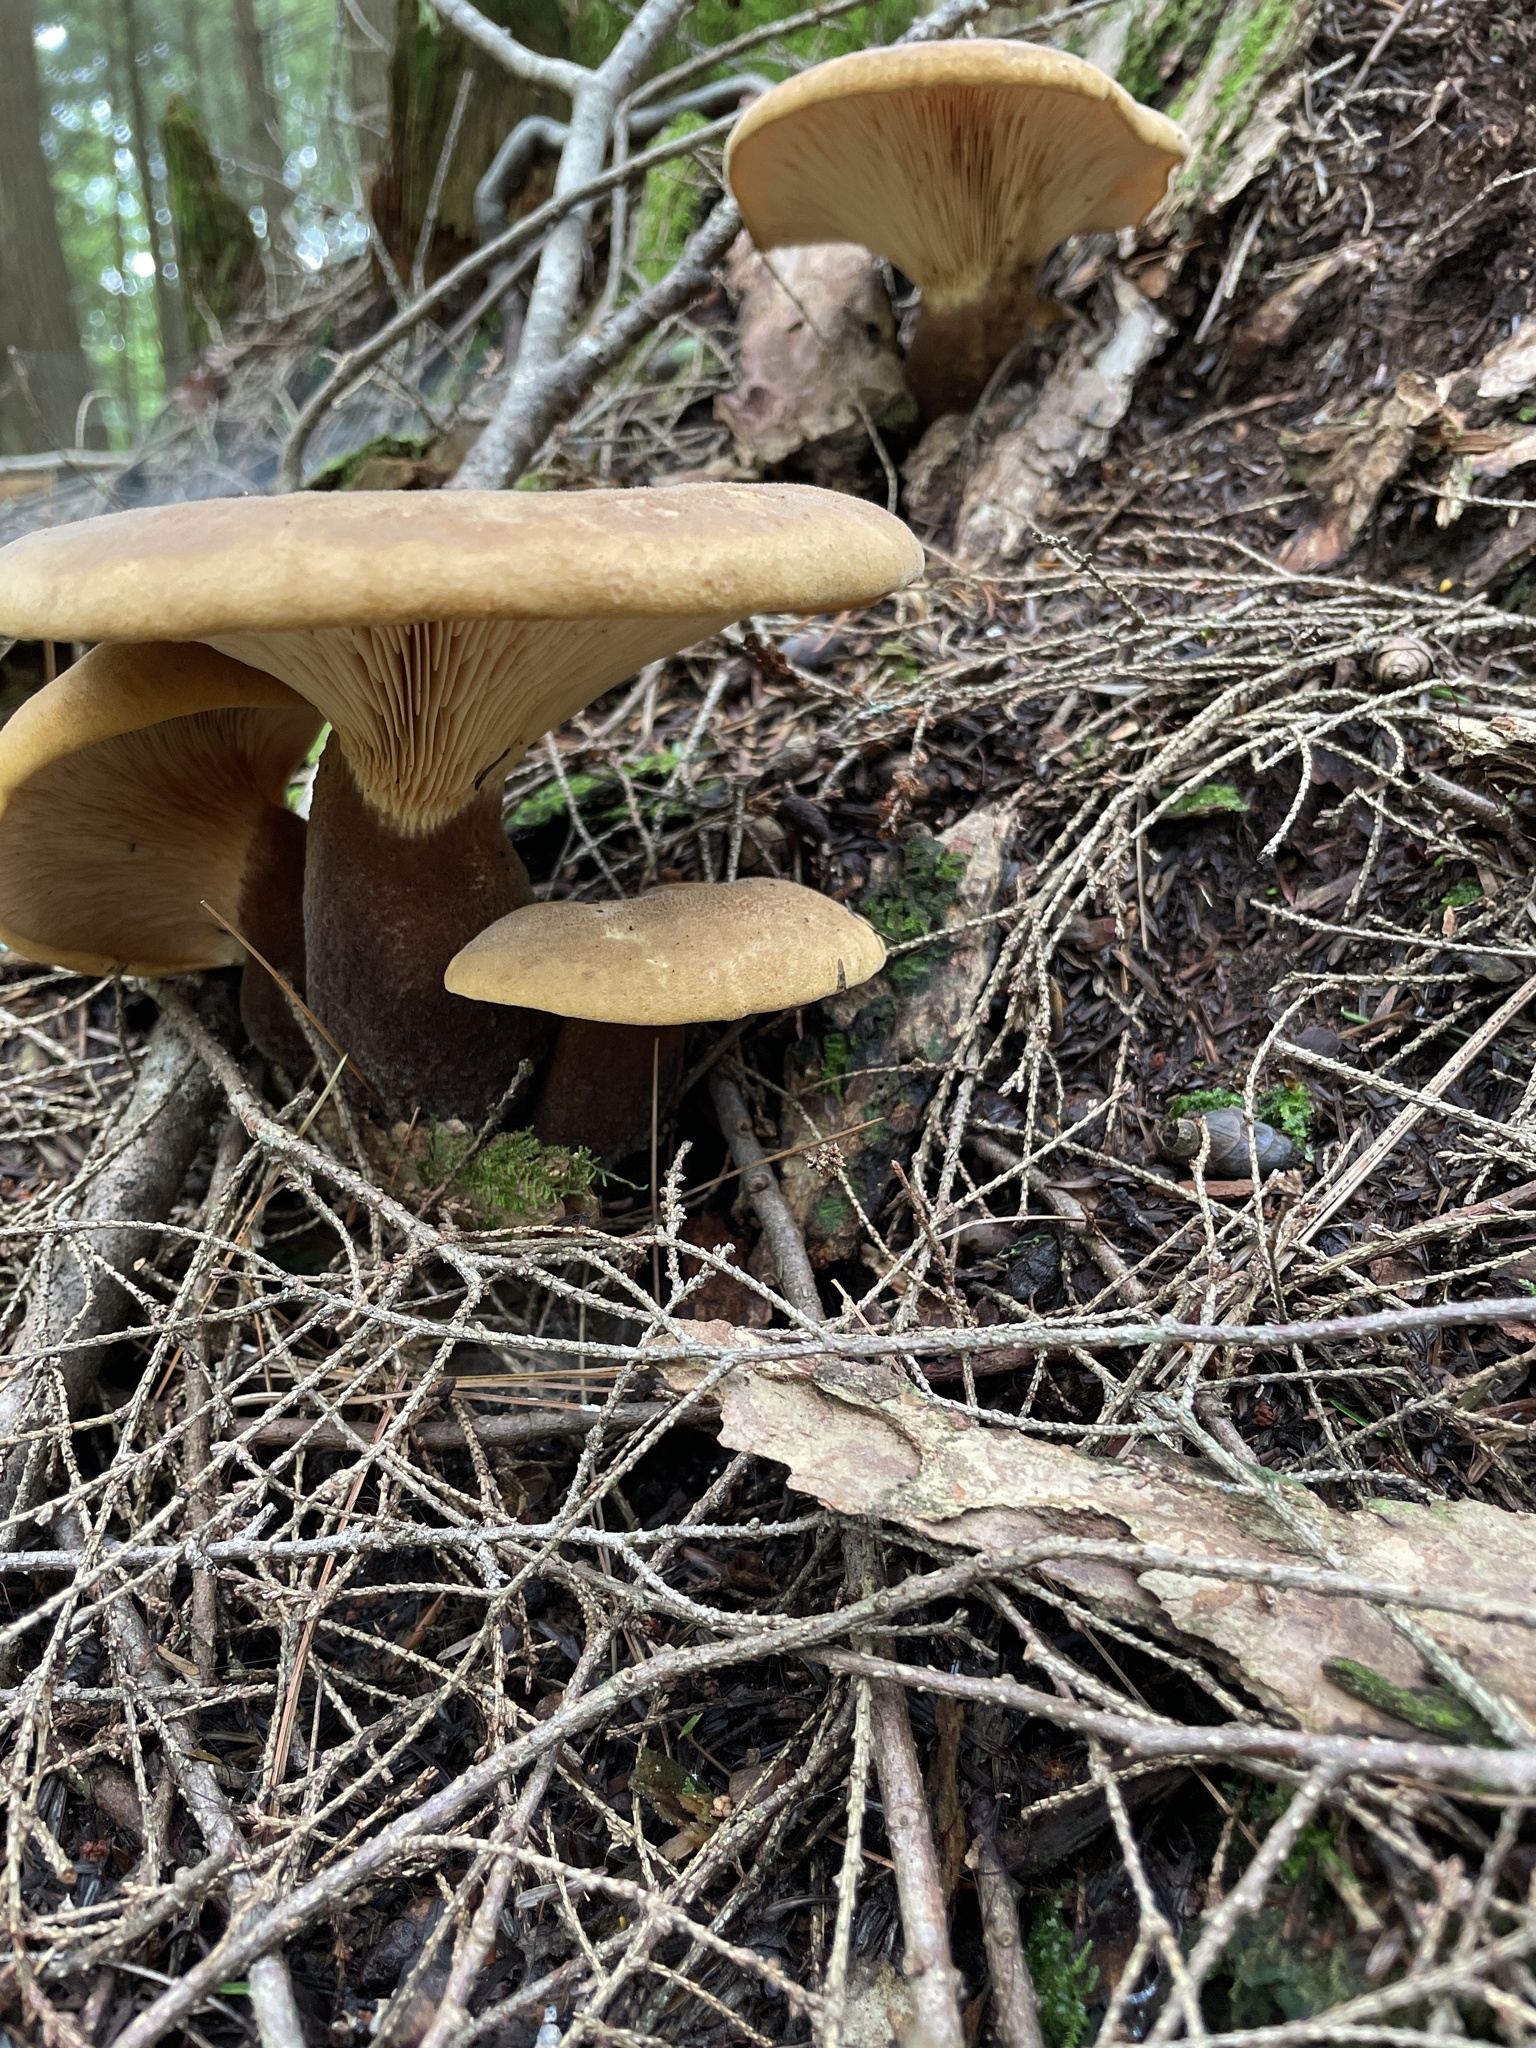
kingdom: Fungi
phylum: Basidiomycota
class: Agaricomycetes
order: Boletales
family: Tapinellaceae
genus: Tapinella
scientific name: Tapinella atrotomentosa
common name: Velvet rollrim
